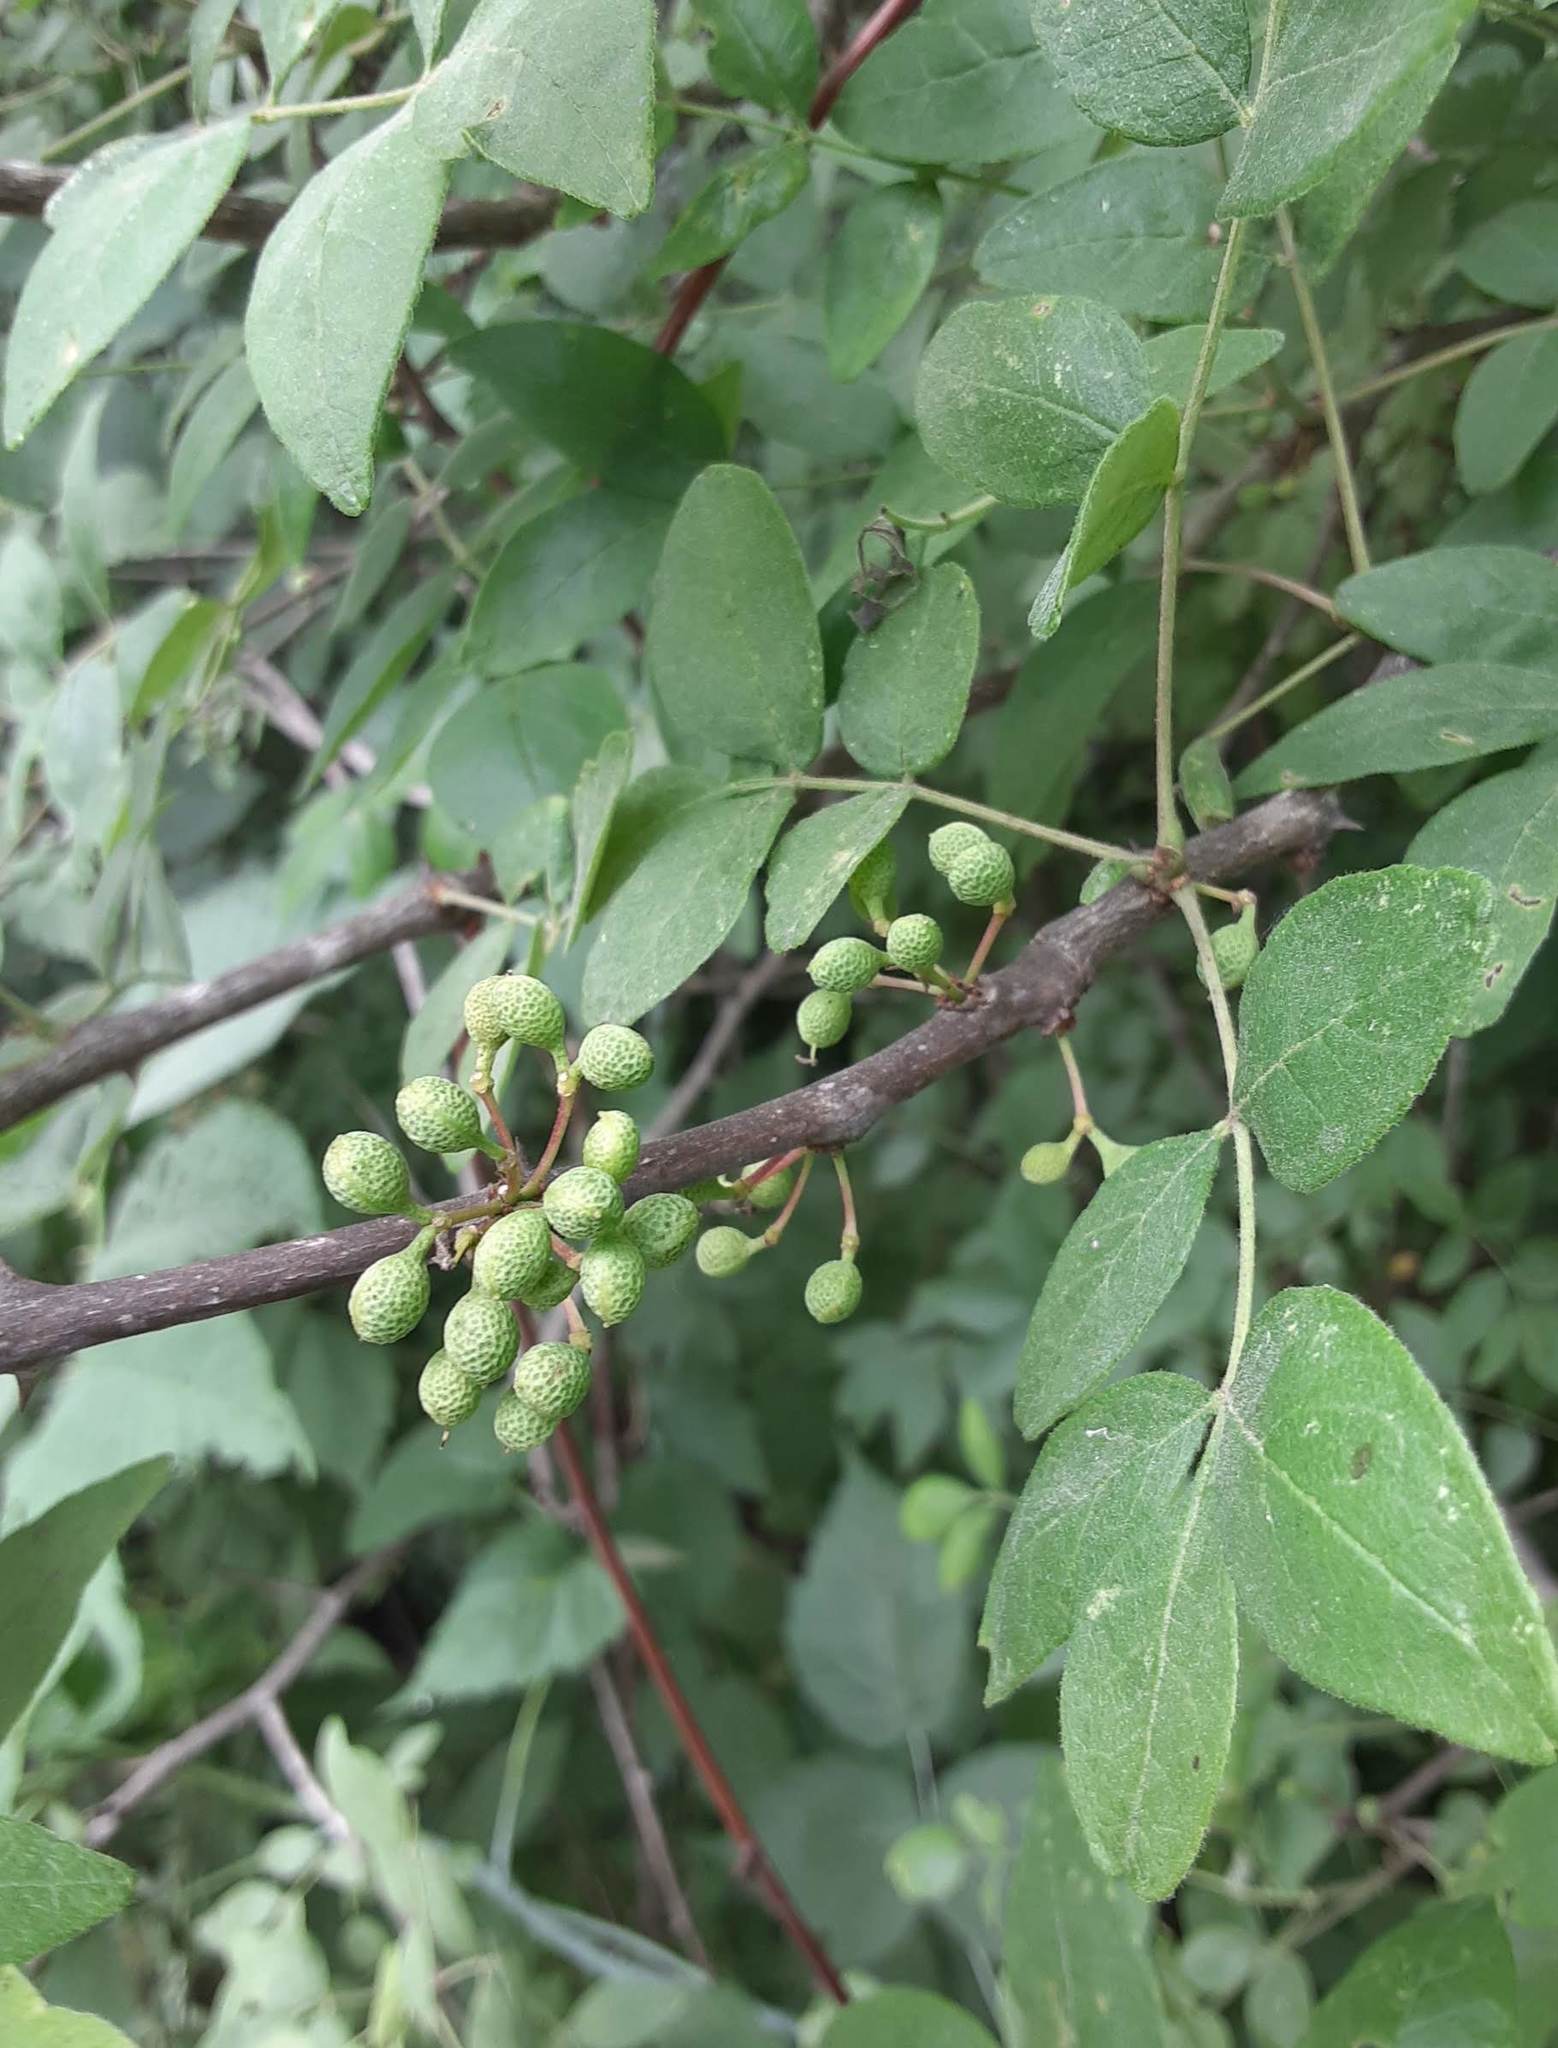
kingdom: Plantae
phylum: Tracheophyta
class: Magnoliopsida
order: Sapindales
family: Rutaceae
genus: Zanthoxylum
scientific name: Zanthoxylum americanum
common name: Northern prickly-ash
